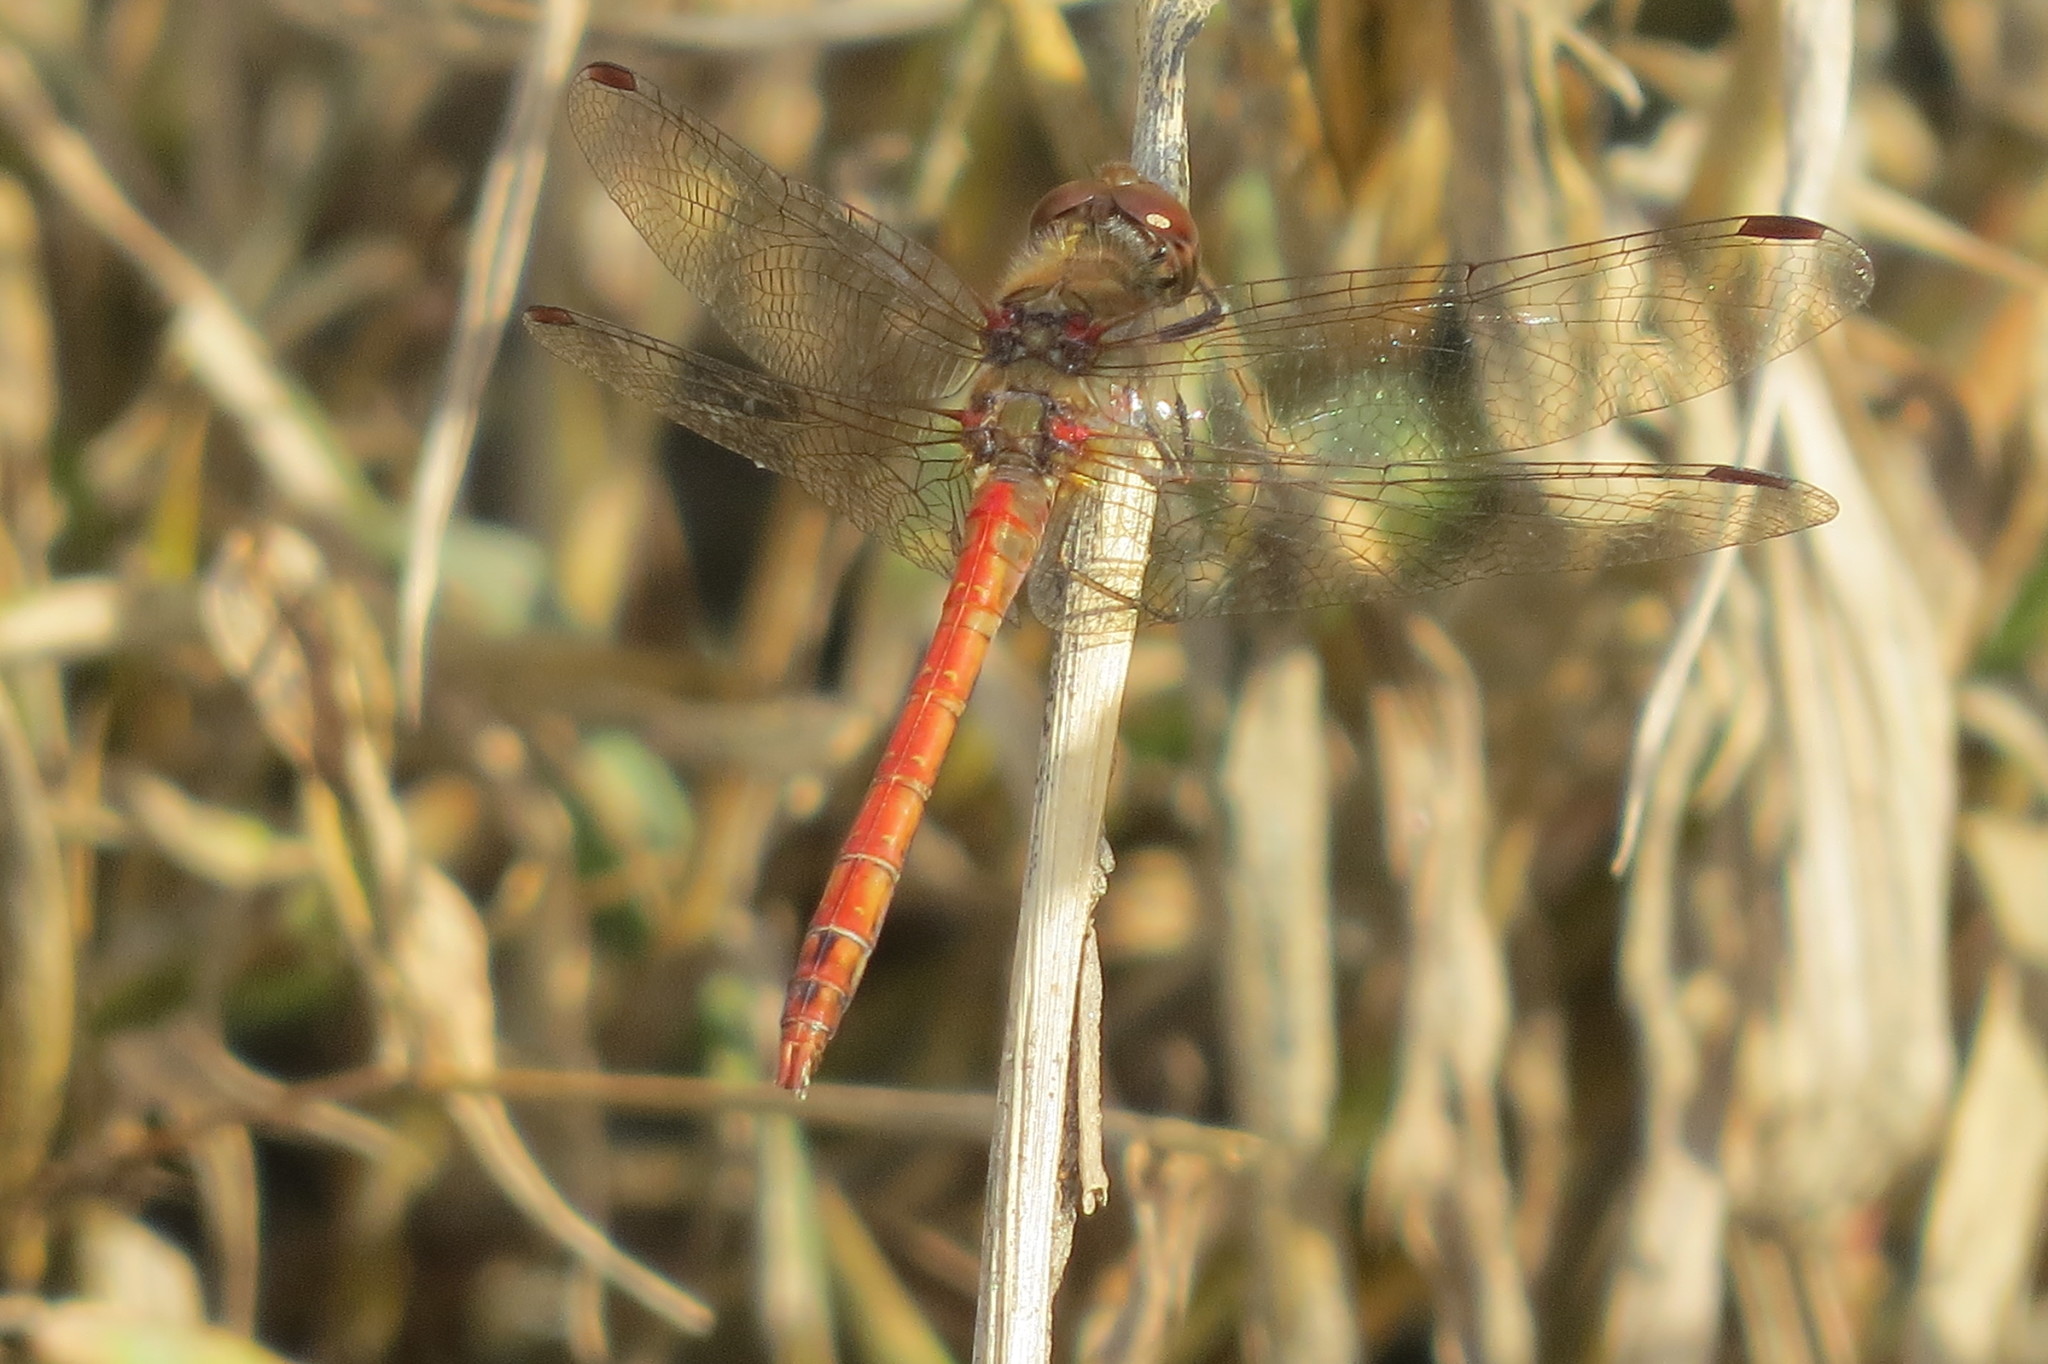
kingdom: Animalia
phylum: Arthropoda
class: Insecta
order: Odonata
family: Libellulidae
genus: Sympetrum
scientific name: Sympetrum striolatum
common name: Common darter
